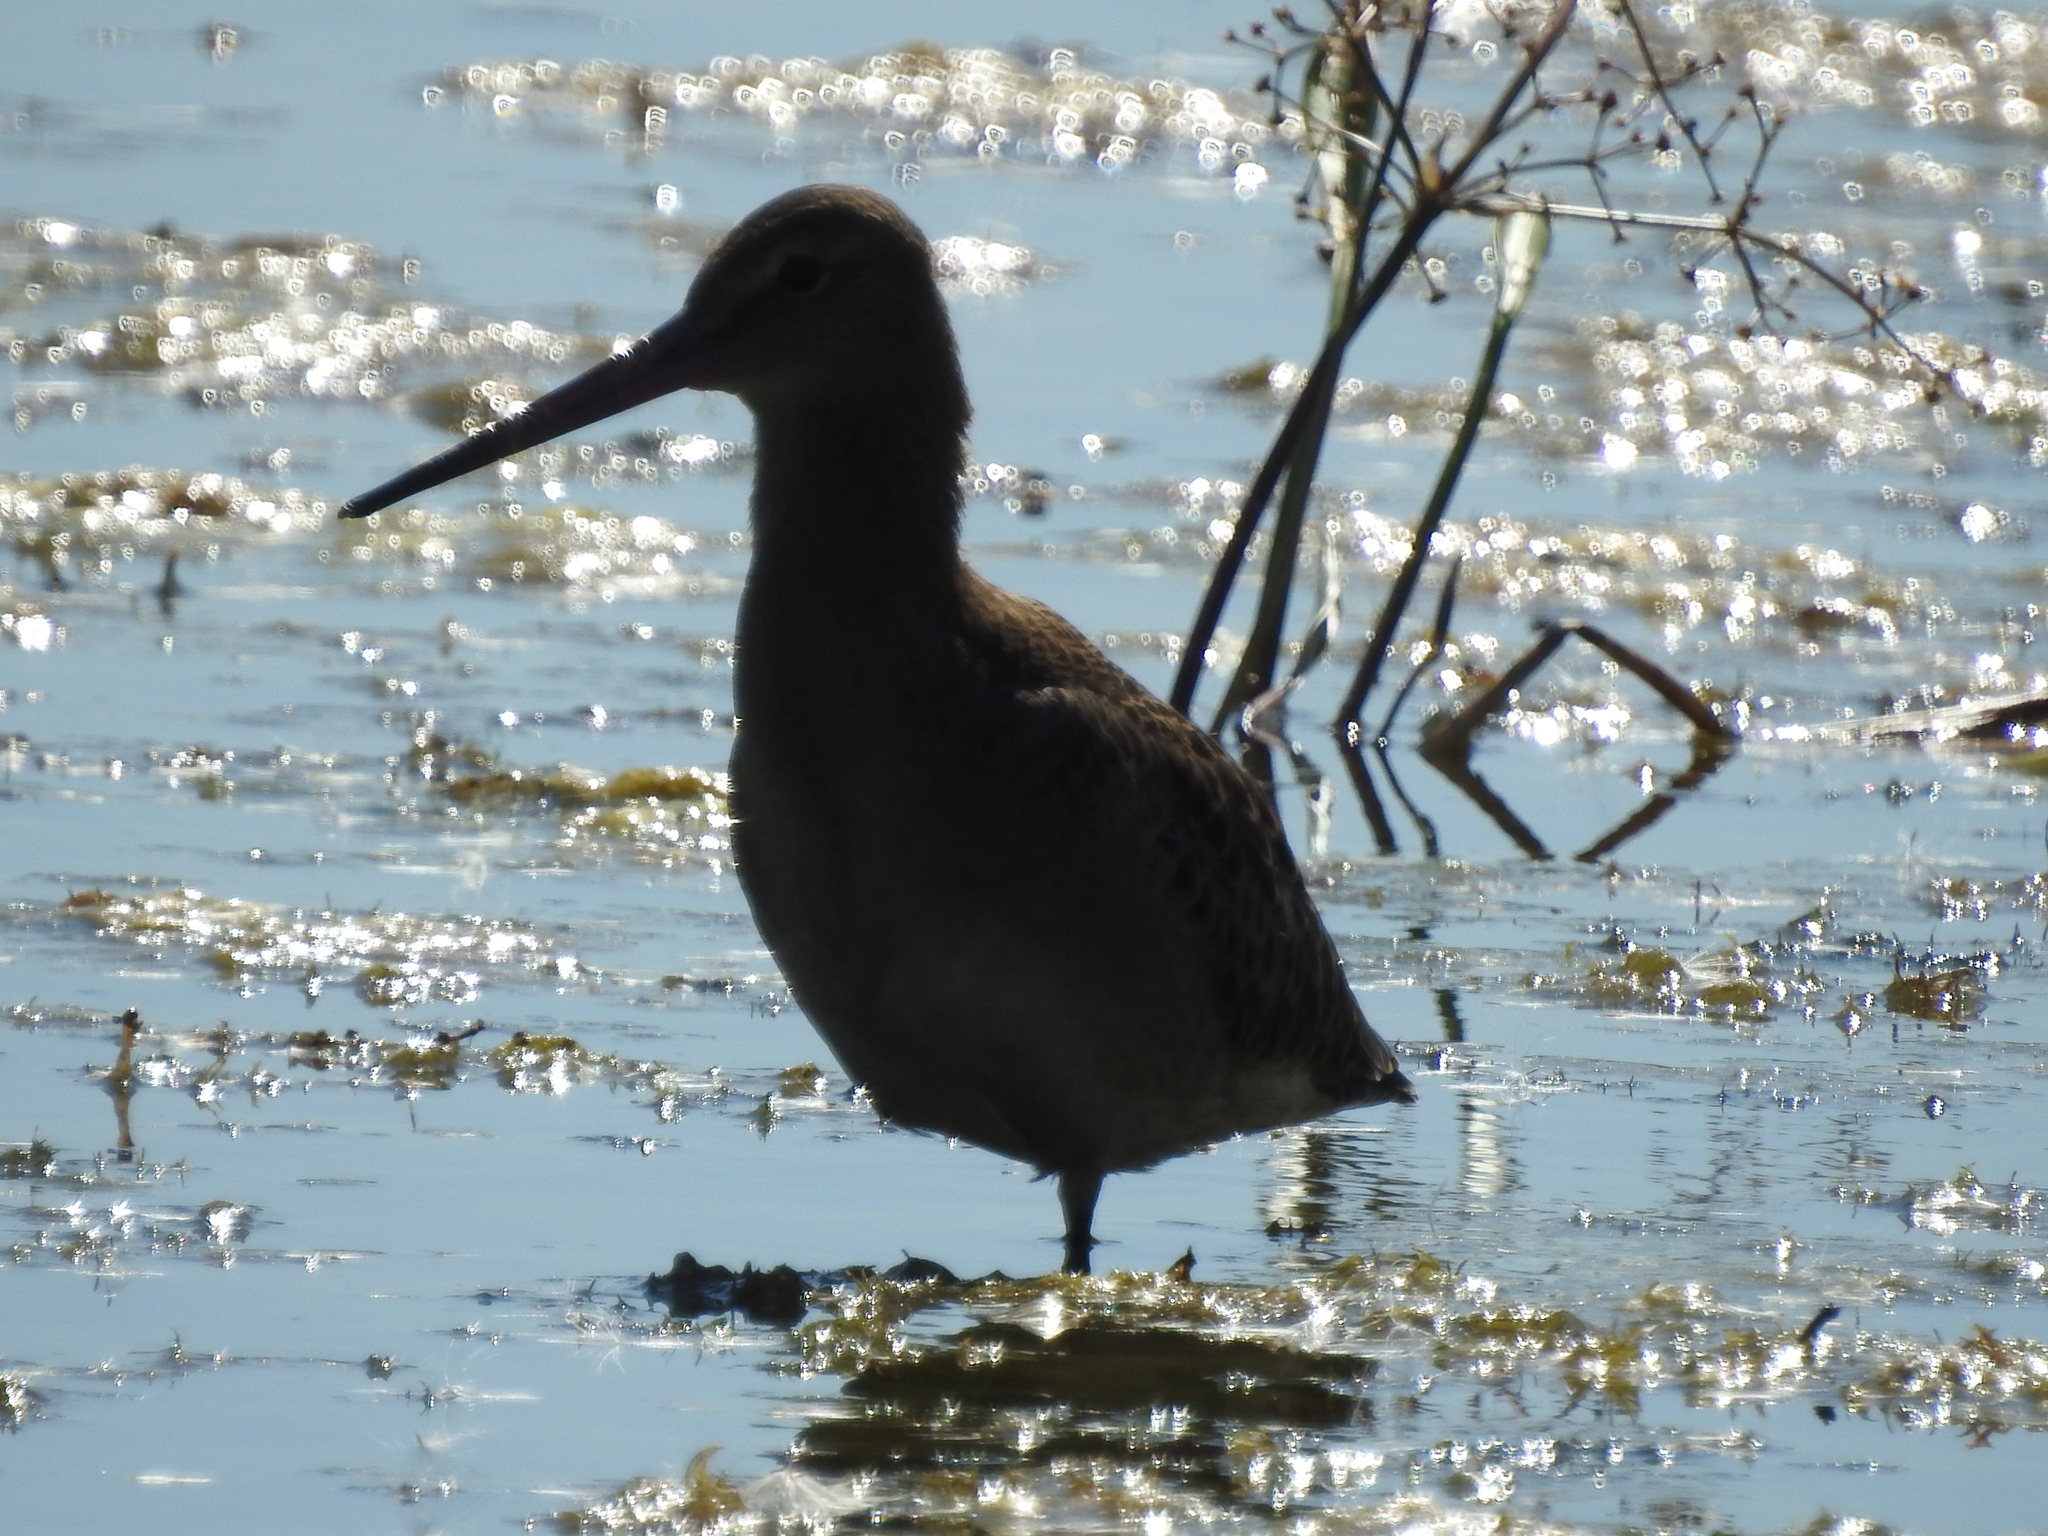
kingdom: Animalia
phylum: Chordata
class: Aves
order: Charadriiformes
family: Scolopacidae
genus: Limosa
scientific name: Limosa limosa
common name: Black-tailed godwit
